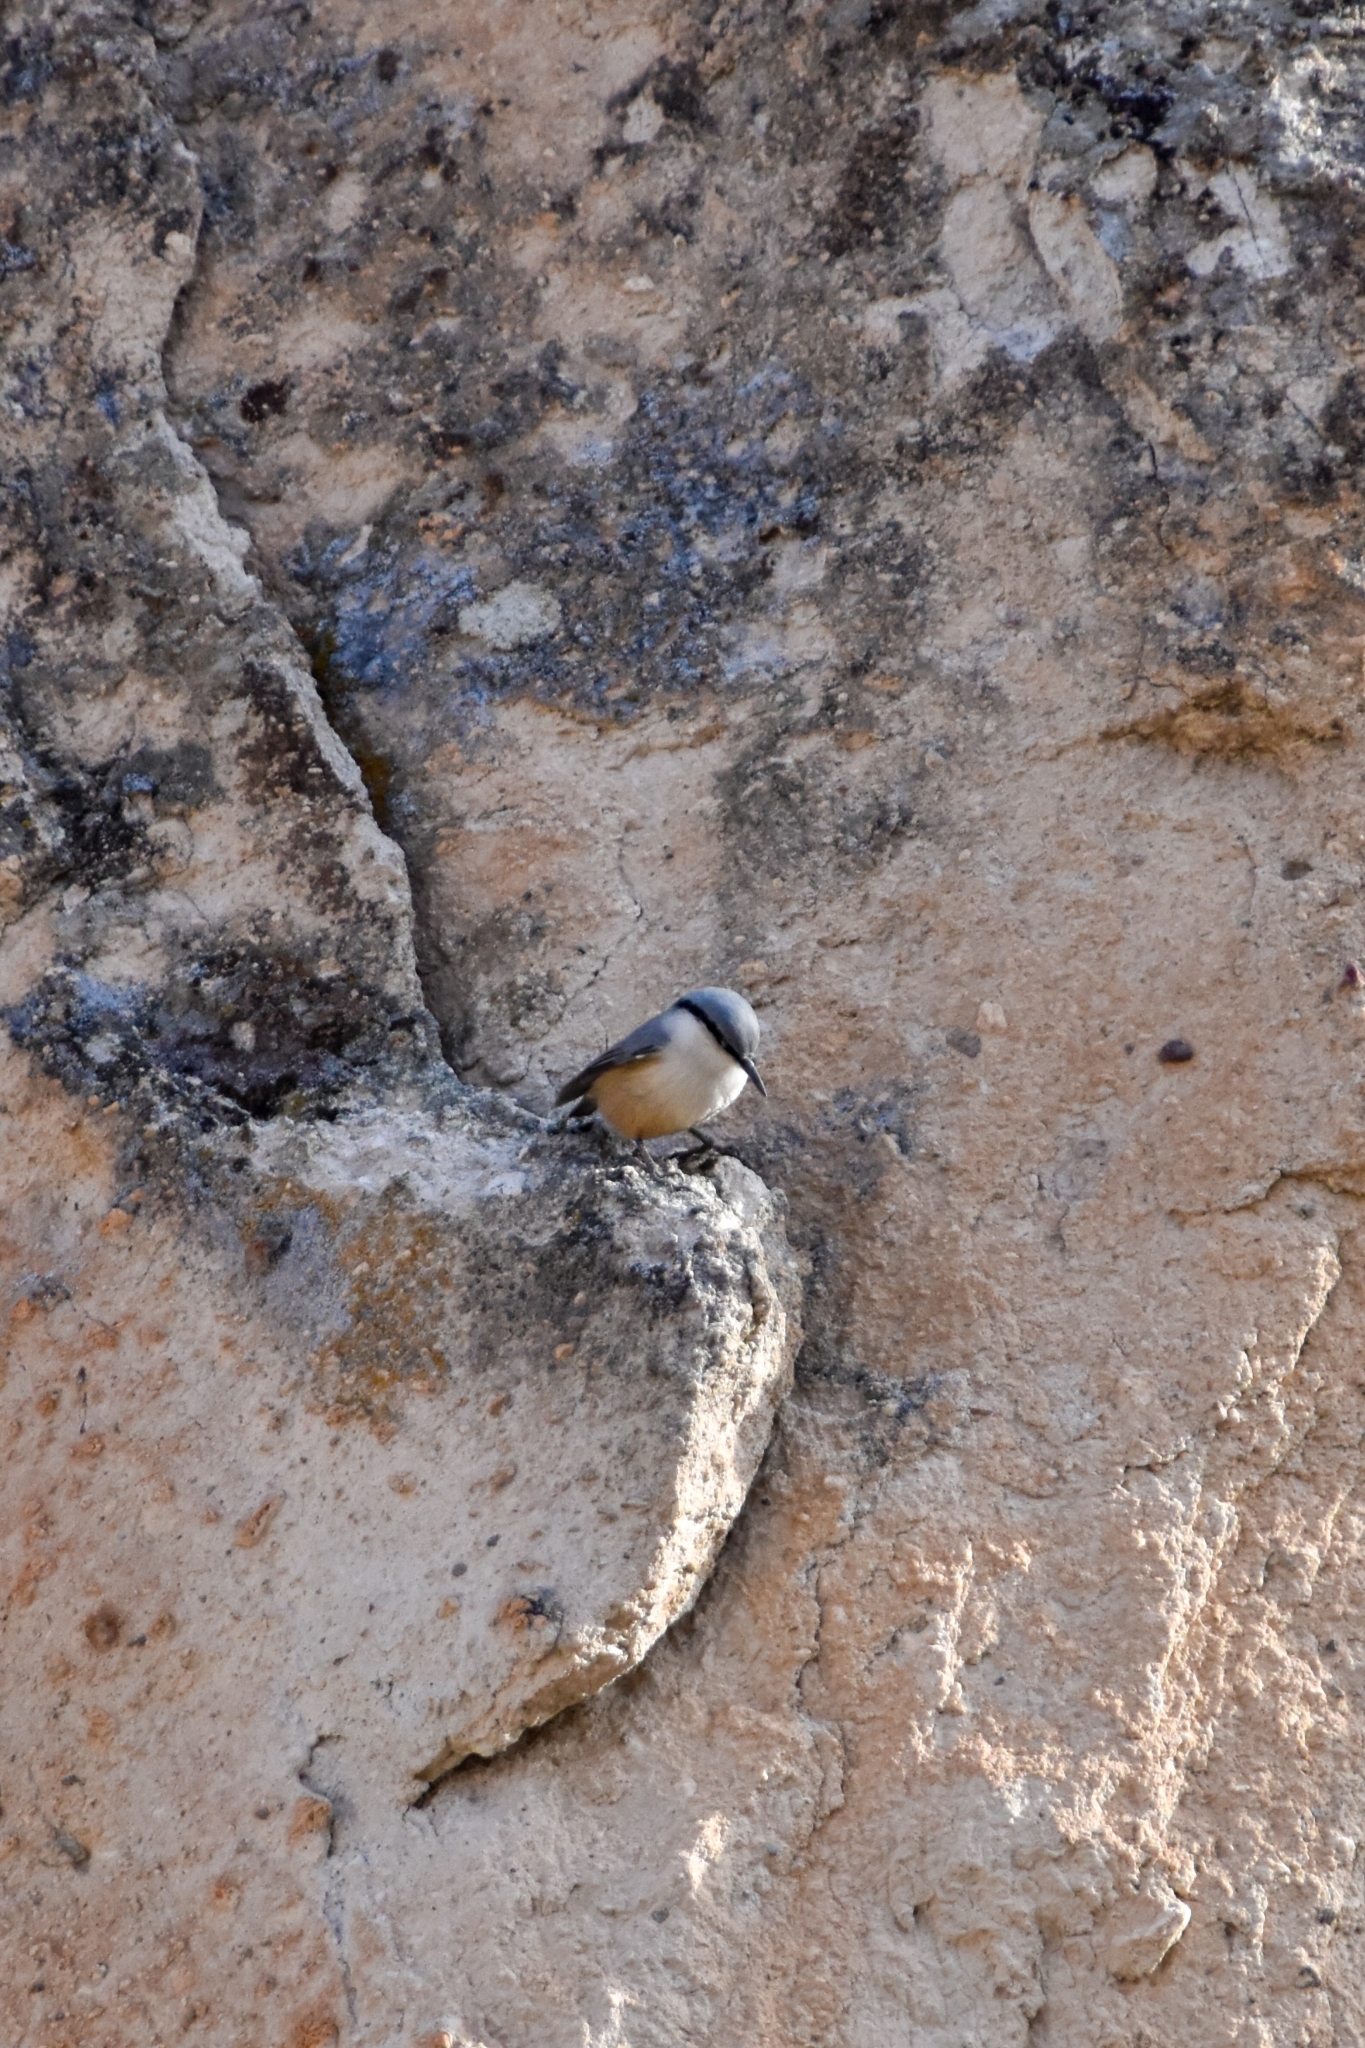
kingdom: Animalia
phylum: Chordata
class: Aves
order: Passeriformes
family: Sittidae
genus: Sitta
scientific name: Sitta neumayer
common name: Western rock nuthatch
